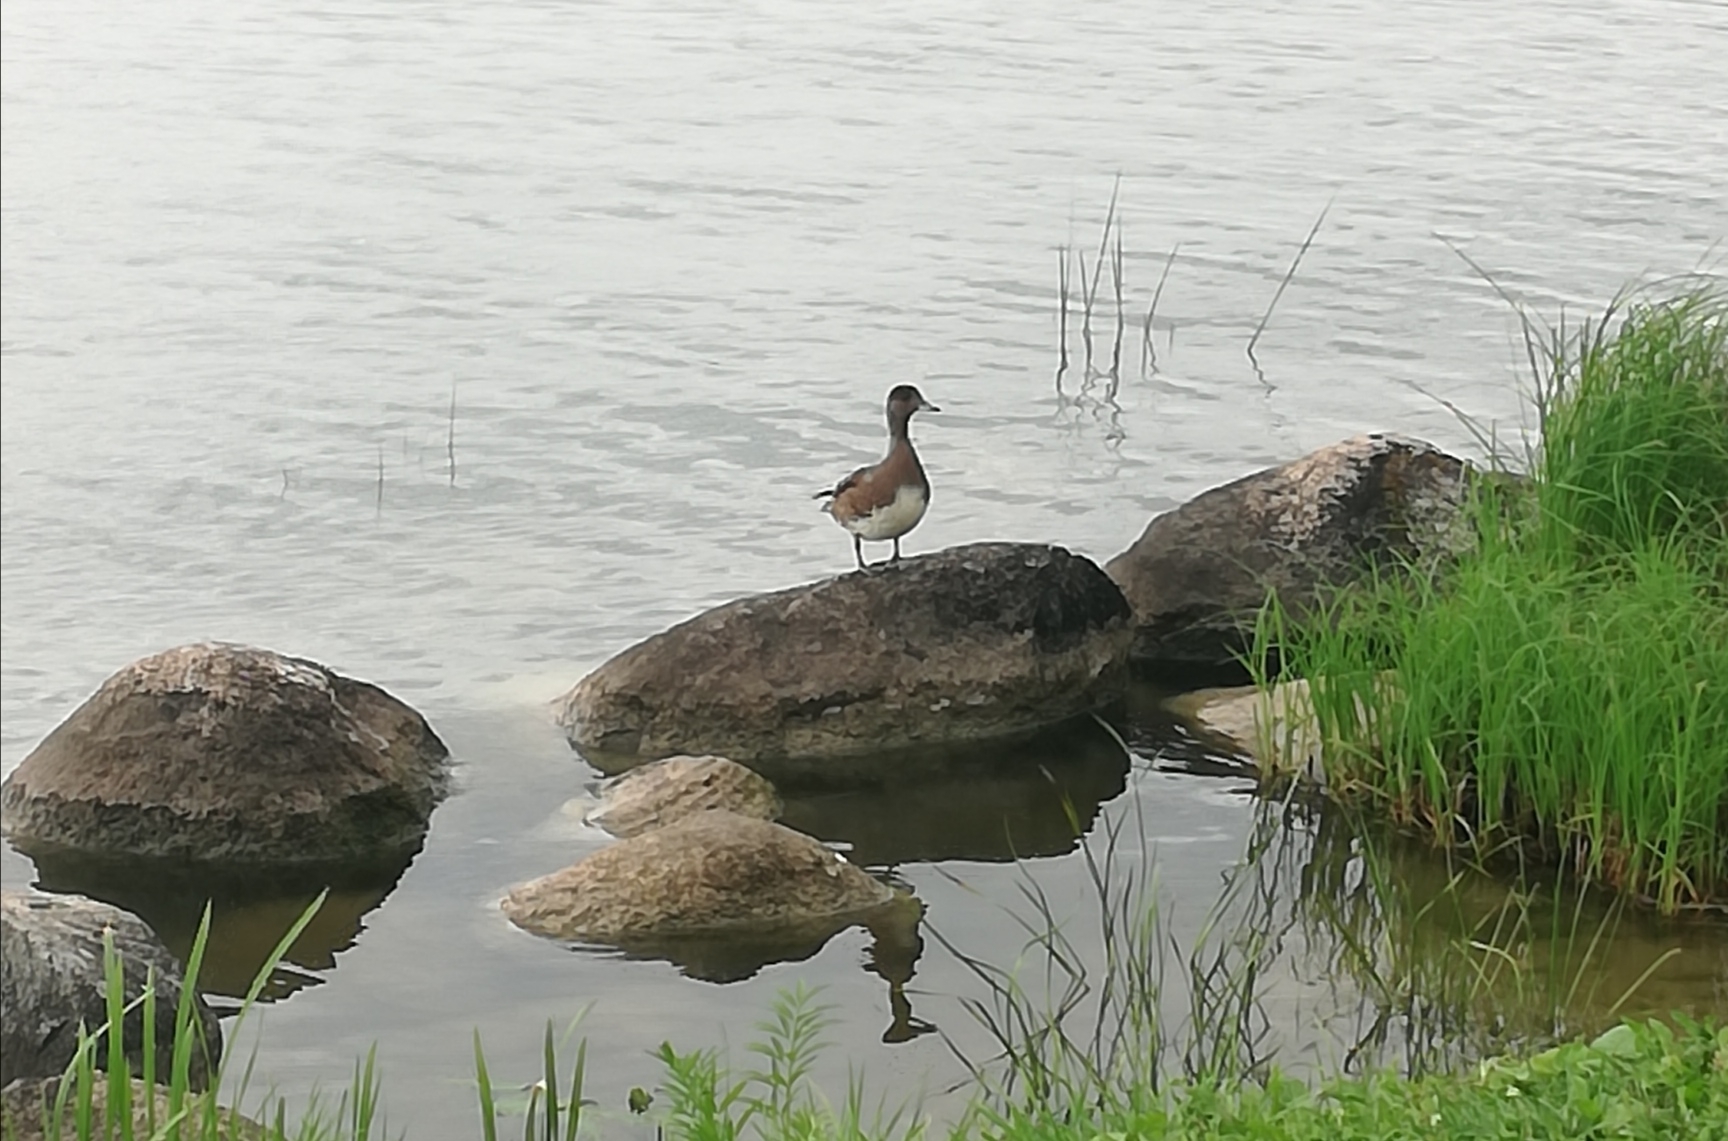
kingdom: Animalia
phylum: Chordata
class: Aves
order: Anseriformes
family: Anatidae
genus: Mareca
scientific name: Mareca penelope
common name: Eurasian wigeon
